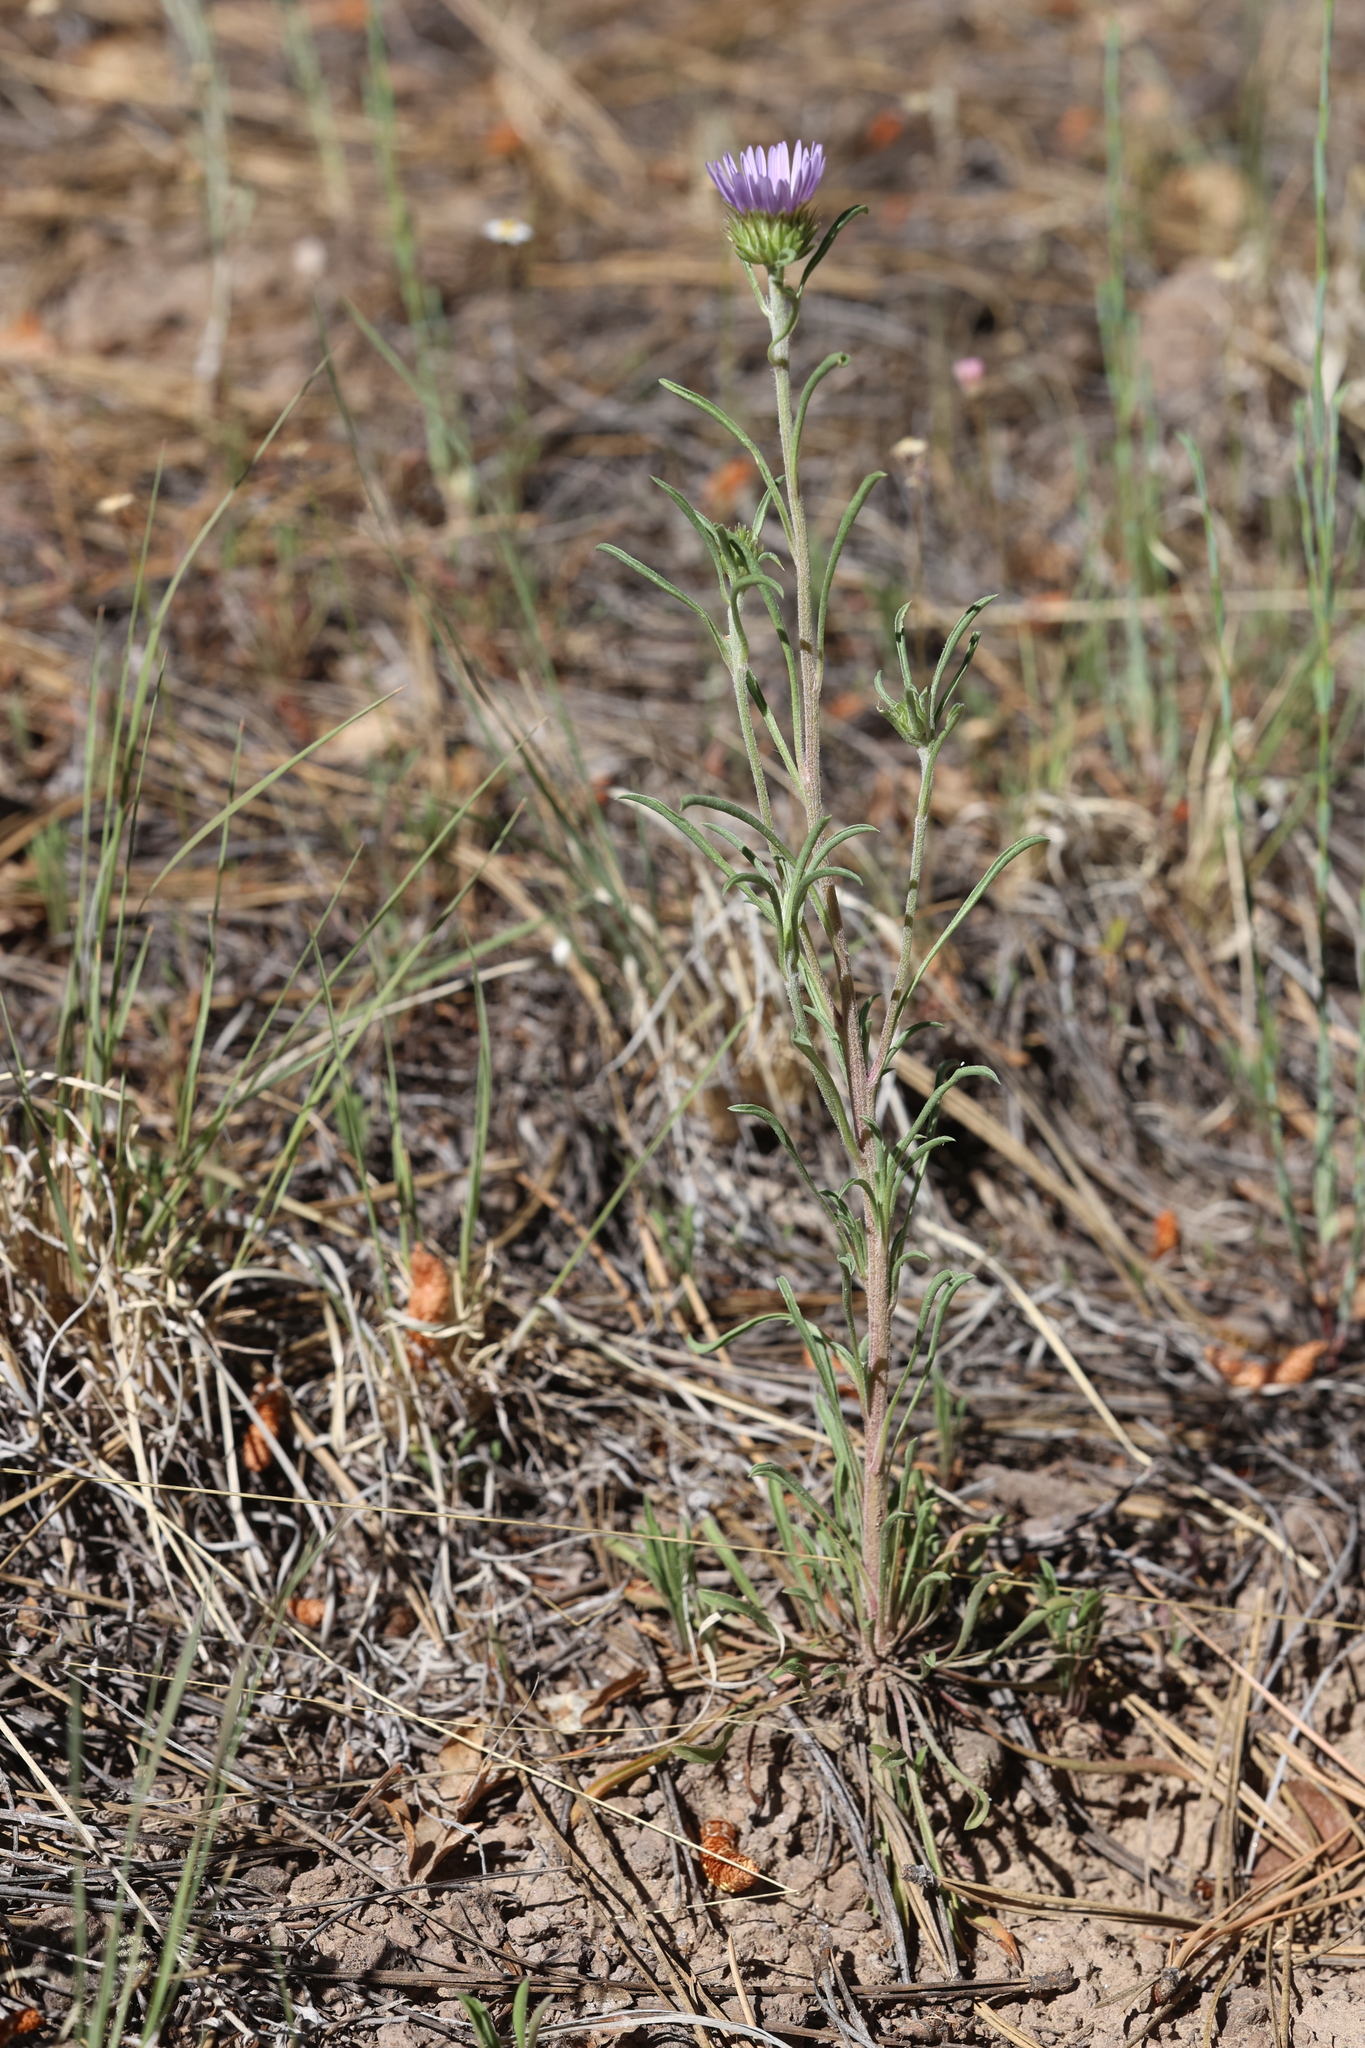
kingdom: Plantae
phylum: Tracheophyta
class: Magnoliopsida
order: Asterales
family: Asteraceae
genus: Townsendia
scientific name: Townsendia eximia
